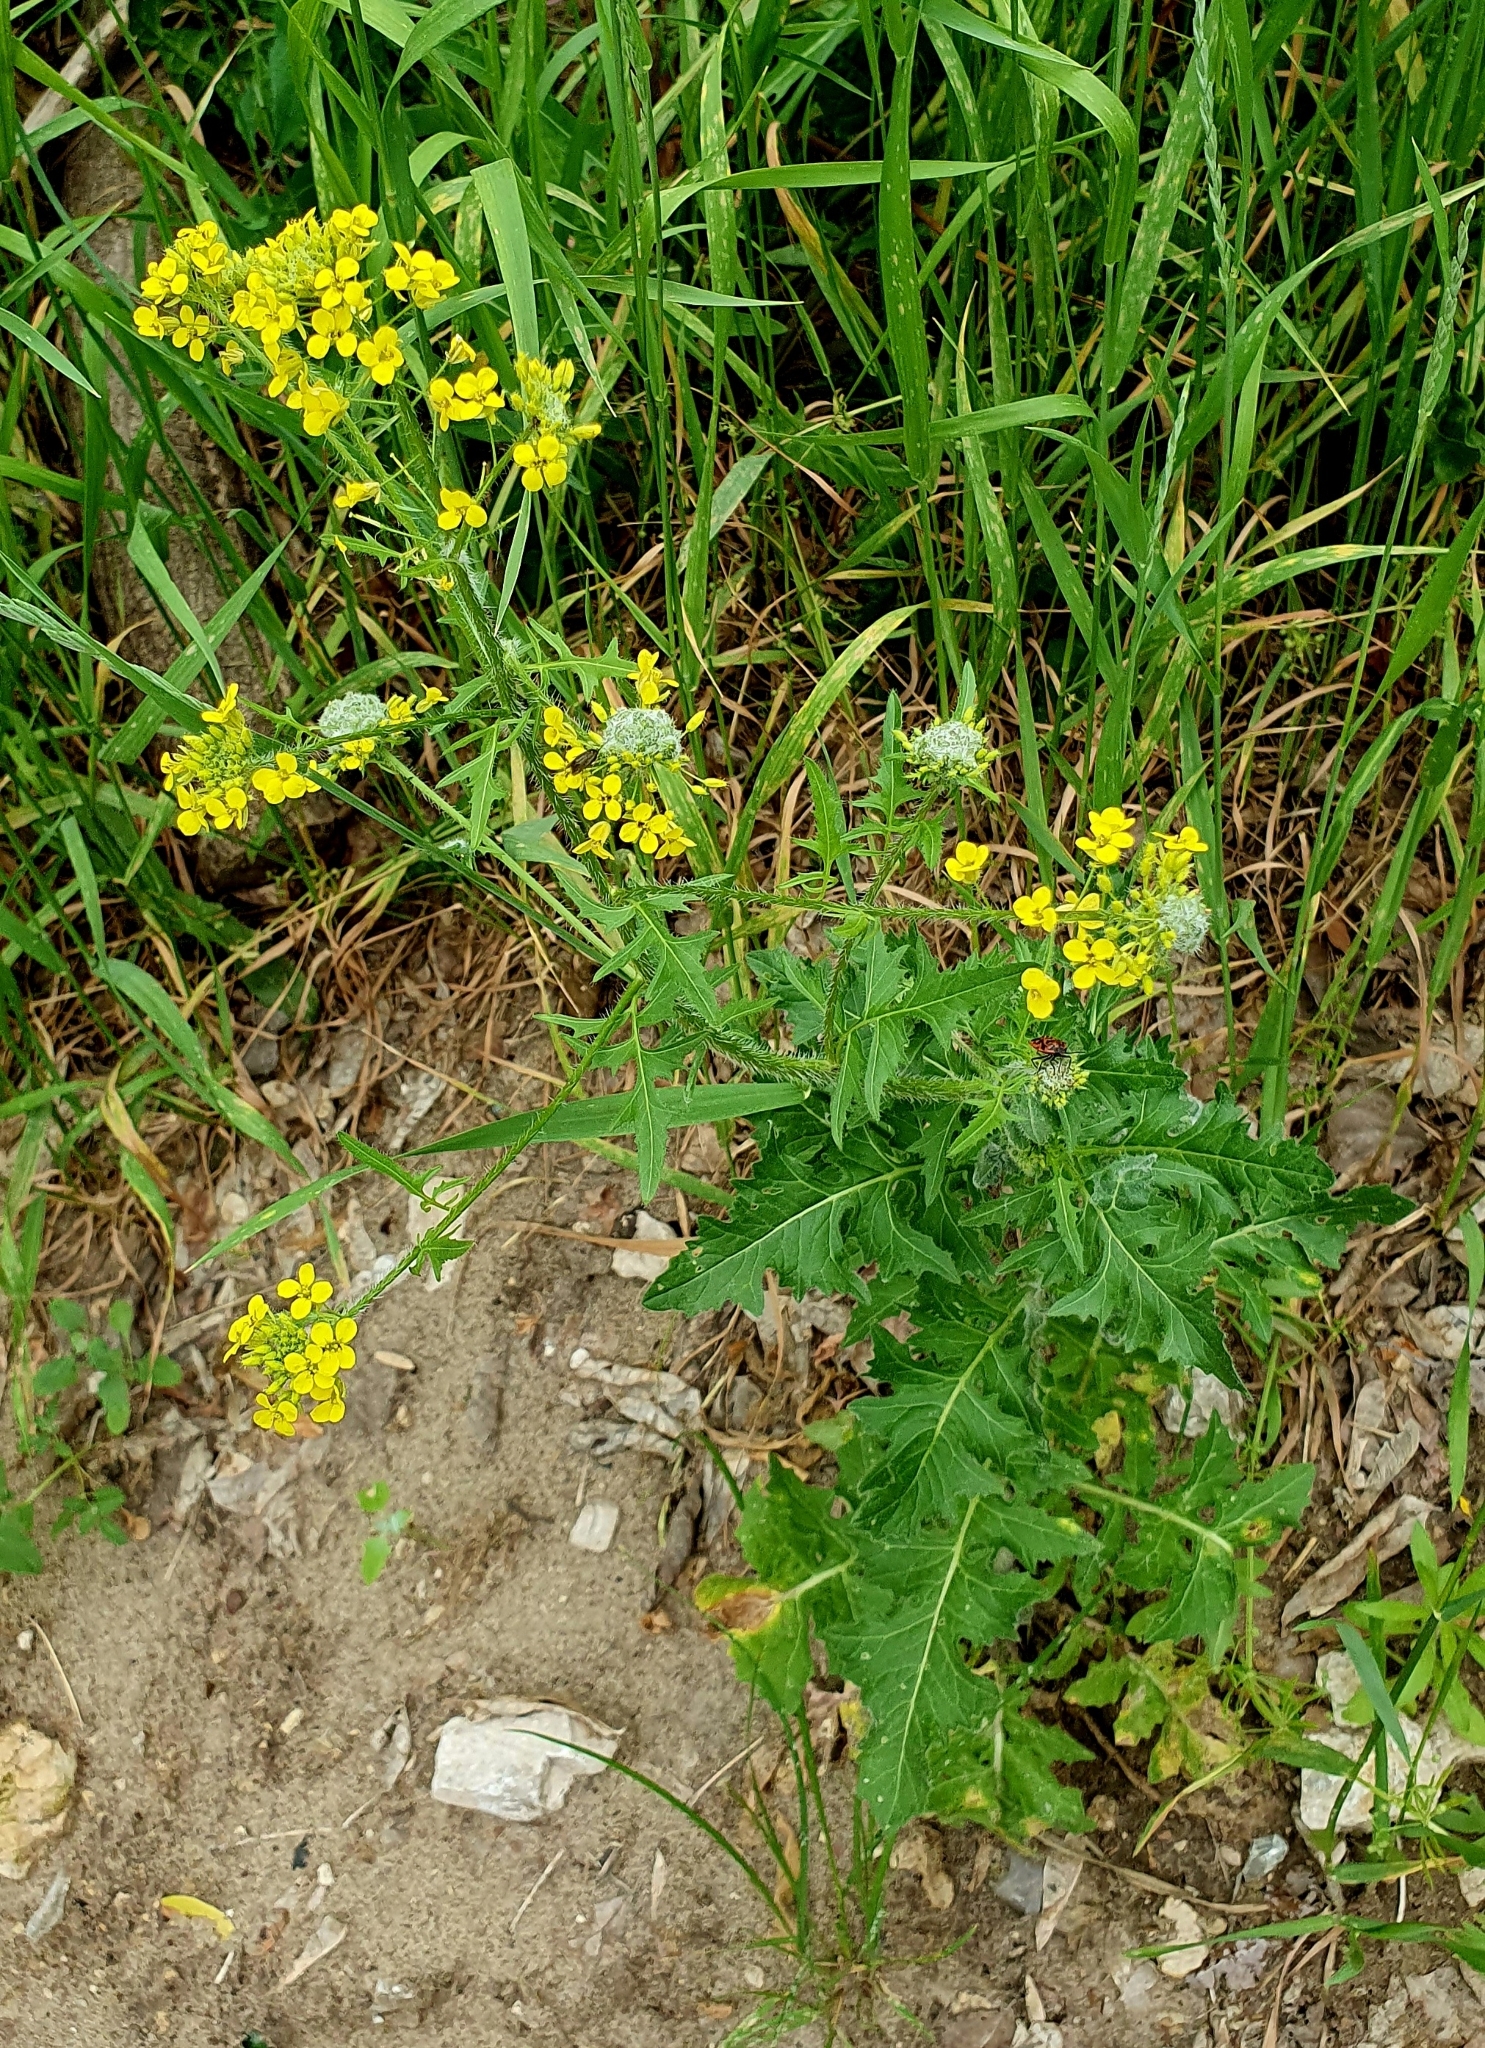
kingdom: Plantae
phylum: Tracheophyta
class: Magnoliopsida
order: Brassicales
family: Brassicaceae
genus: Sisymbrium
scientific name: Sisymbrium loeselii
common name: False london-rocket
